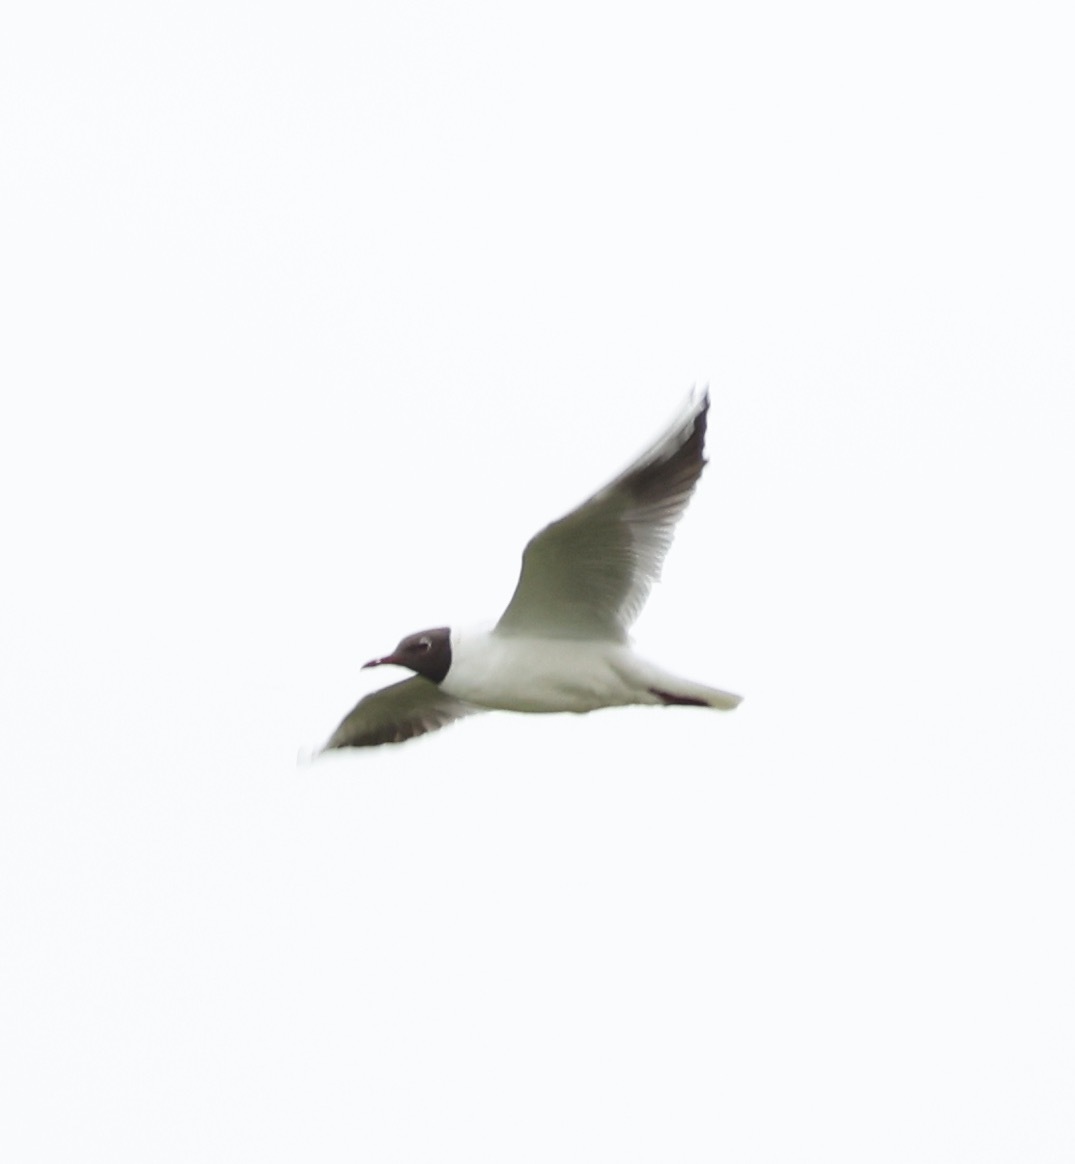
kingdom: Animalia
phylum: Chordata
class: Aves
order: Charadriiformes
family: Laridae
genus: Chroicocephalus
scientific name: Chroicocephalus ridibundus
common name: Black-headed gull
